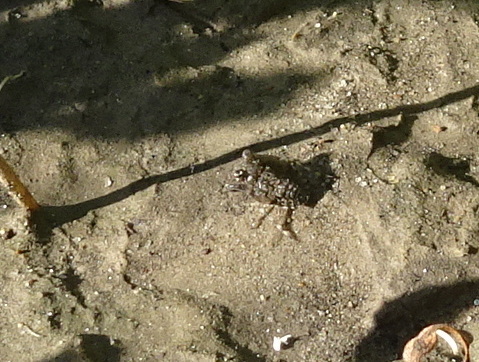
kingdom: Animalia
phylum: Arthropoda
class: Insecta
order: Hemiptera
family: Gelastocoridae
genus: Gelastocoris
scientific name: Gelastocoris oculatus
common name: Toad bug
